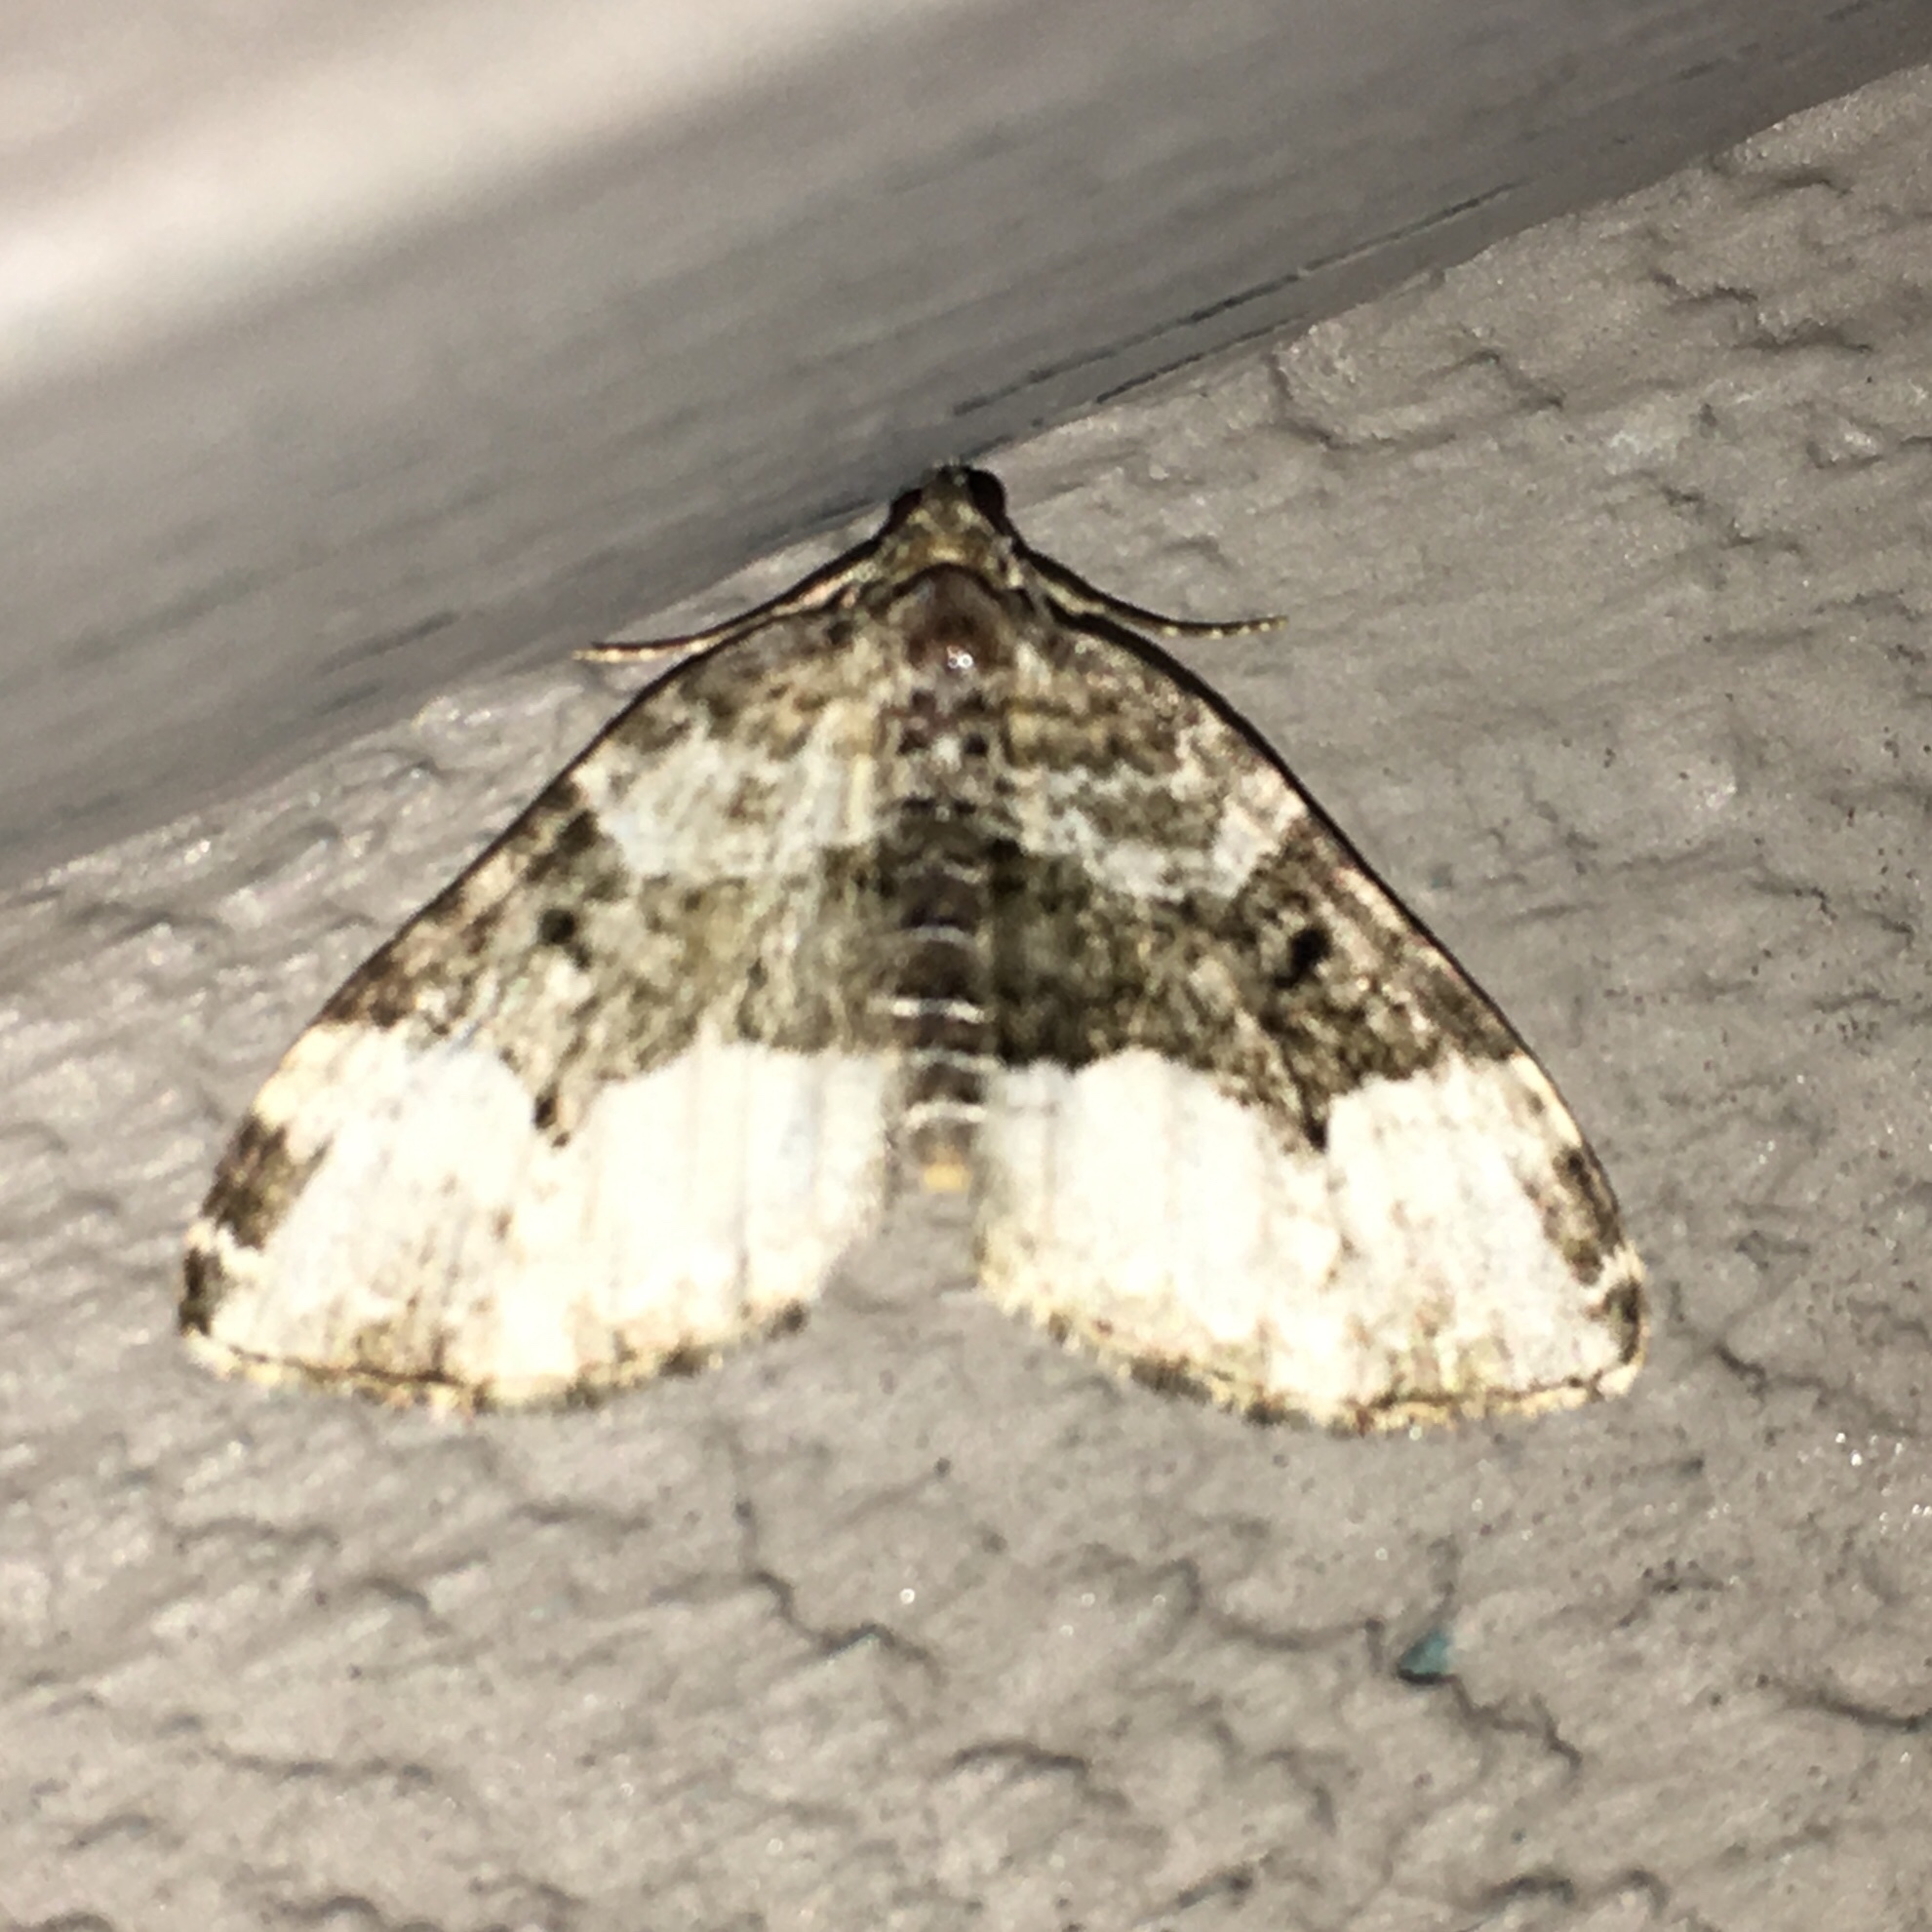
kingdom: Animalia
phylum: Arthropoda
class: Insecta
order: Lepidoptera
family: Geometridae
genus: Euphyia
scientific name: Euphyia intermediata
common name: Sharp-angled carpet
